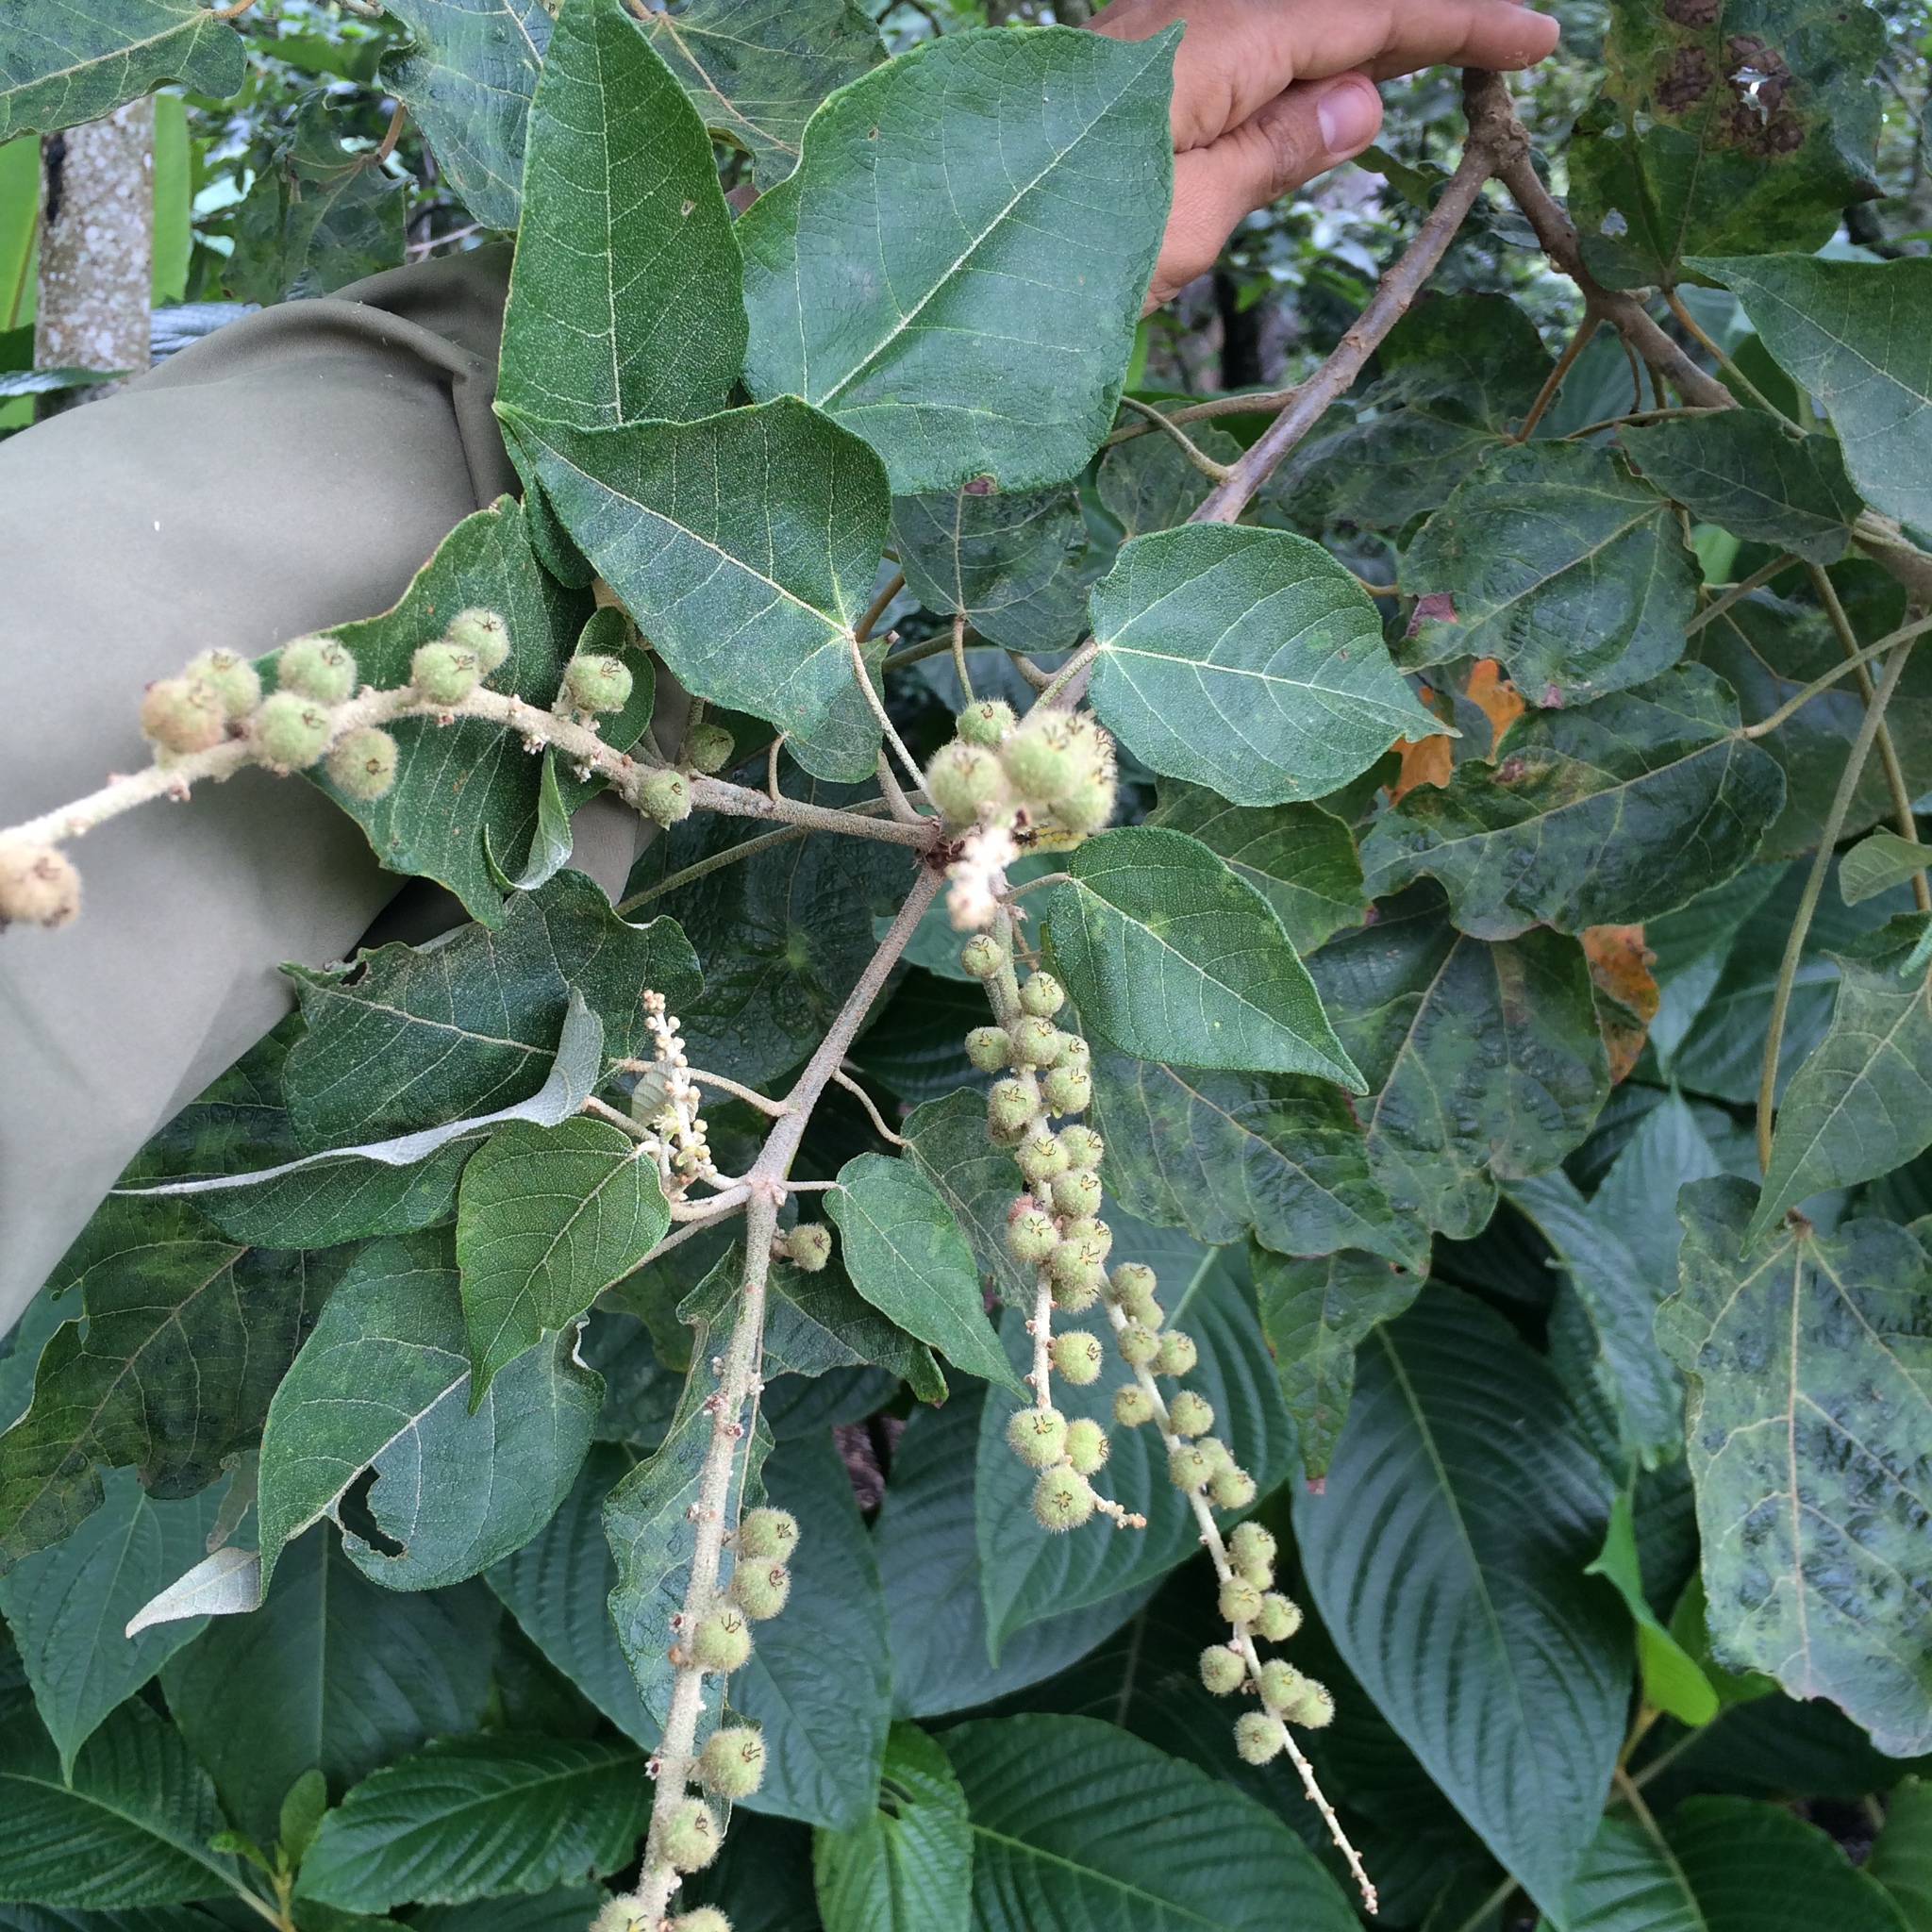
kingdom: Plantae
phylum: Tracheophyta
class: Magnoliopsida
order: Malpighiales
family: Euphorbiaceae
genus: Croton
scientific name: Croton draco
